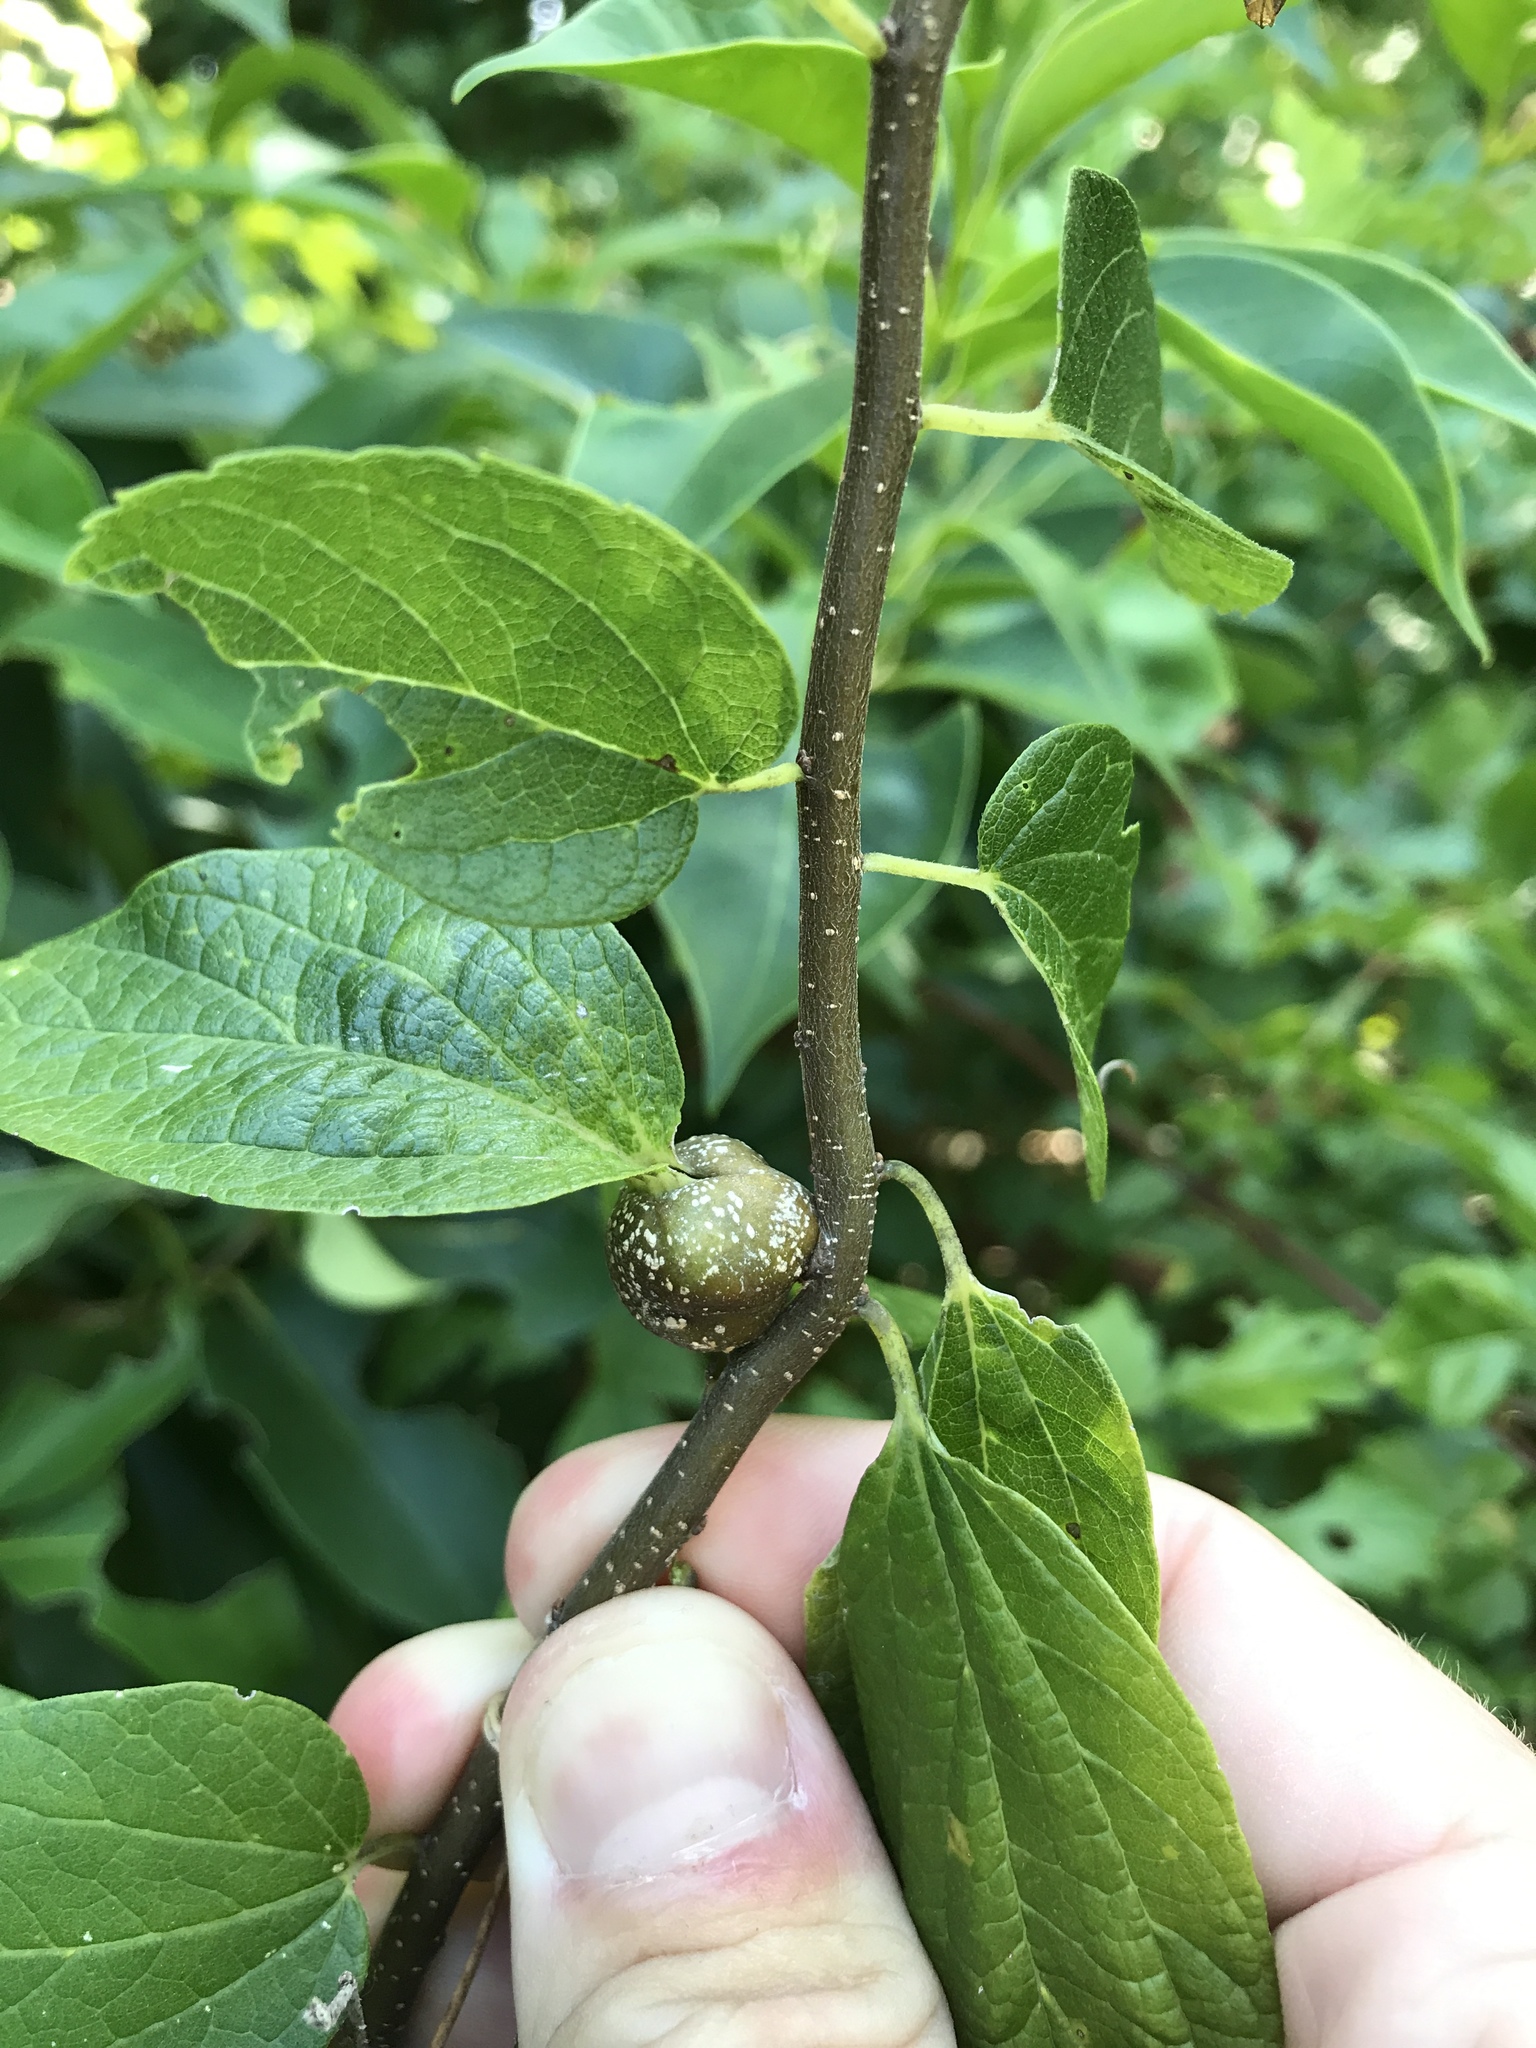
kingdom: Animalia
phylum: Arthropoda
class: Insecta
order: Hemiptera
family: Aphalaridae
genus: Pachypsylla
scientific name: Pachypsylla venusta
